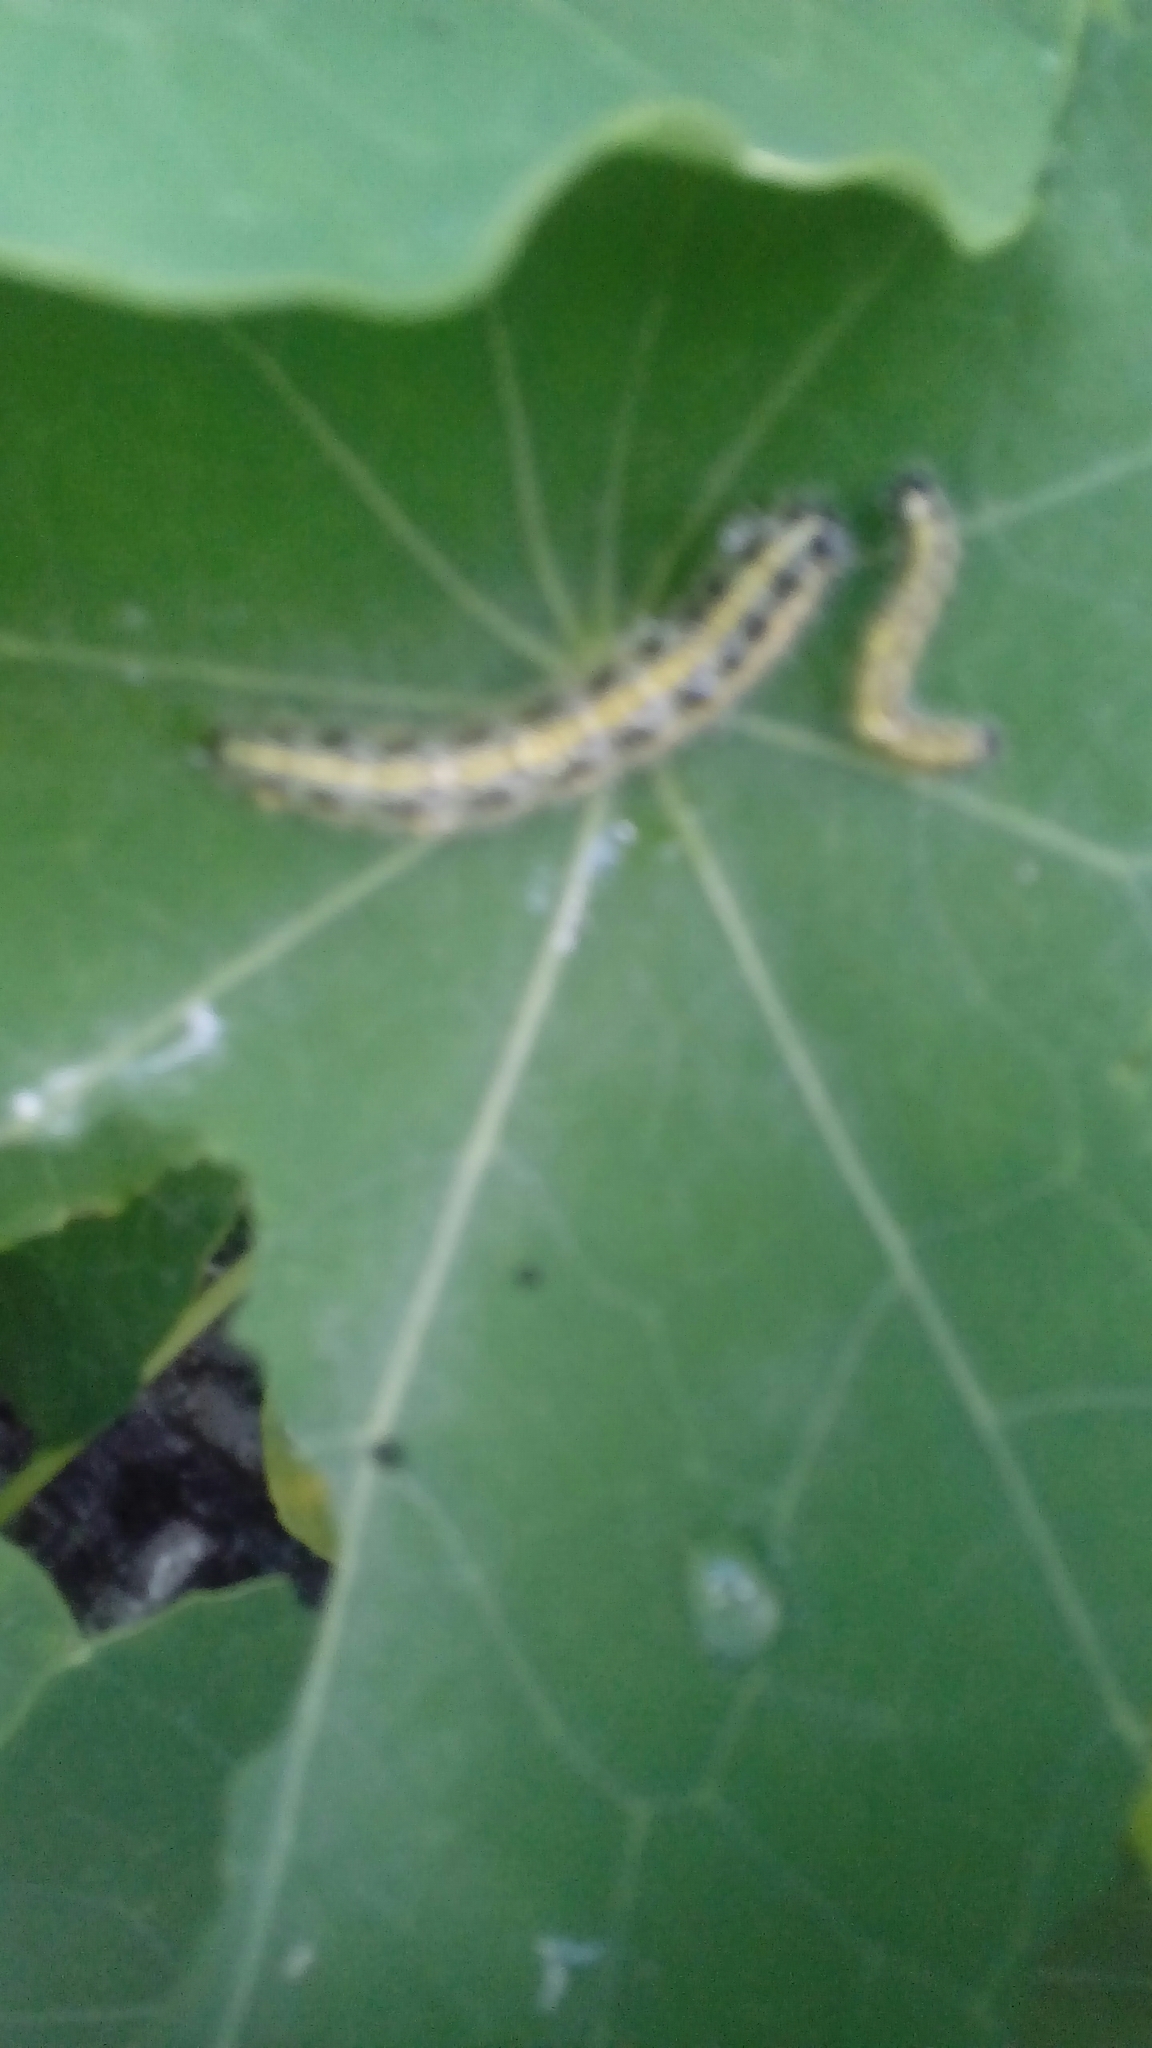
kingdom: Animalia
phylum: Arthropoda
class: Insecta
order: Lepidoptera
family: Pieridae
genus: Pieris
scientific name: Pieris brassicae
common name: Large white
